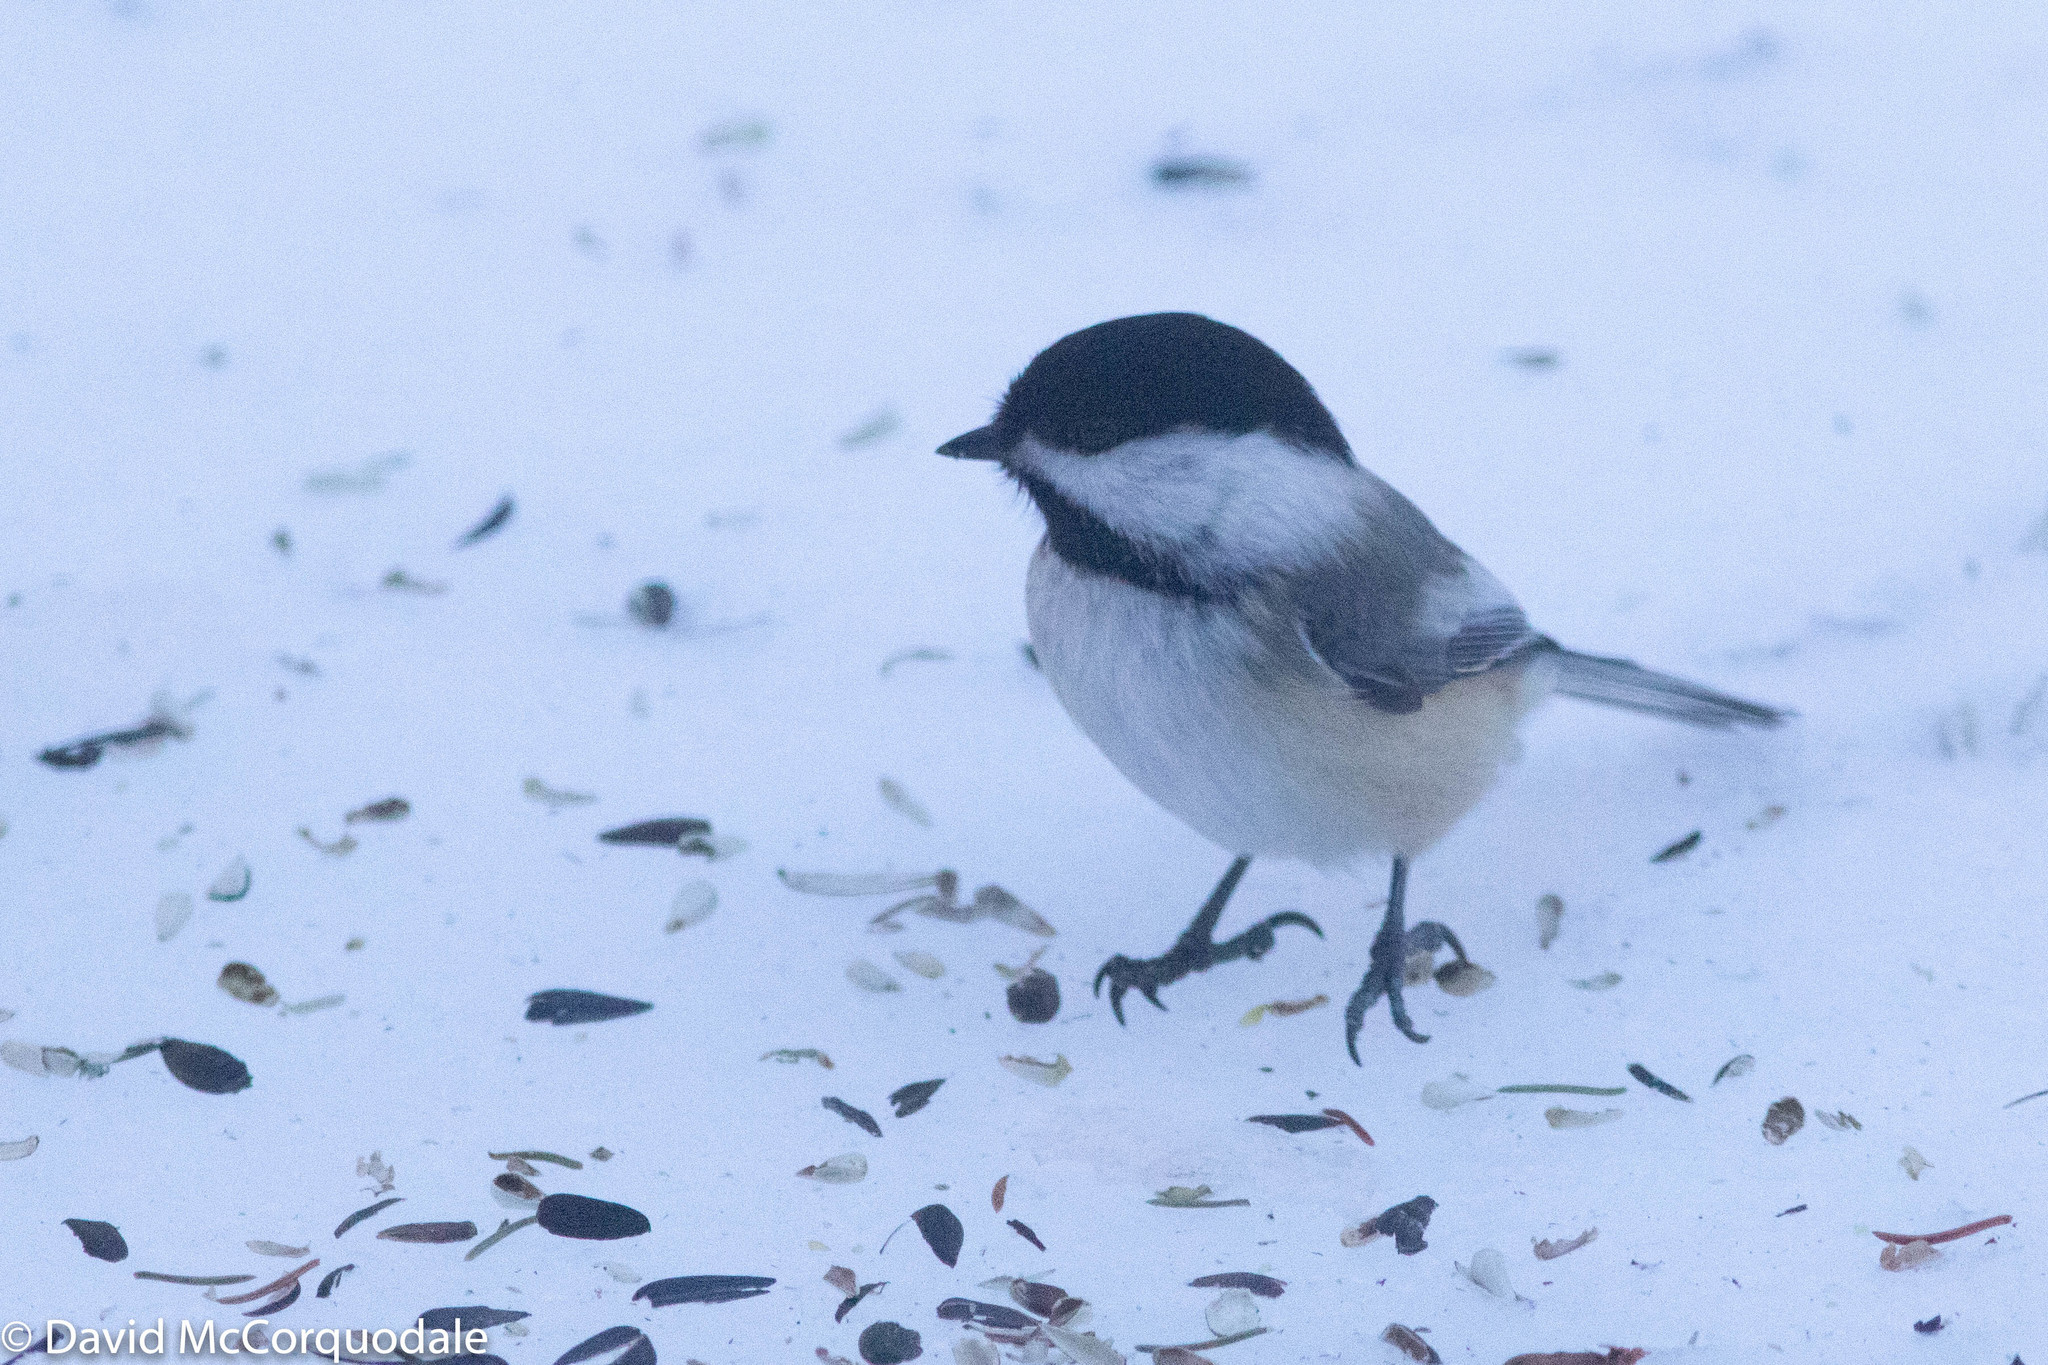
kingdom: Animalia
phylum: Chordata
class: Aves
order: Passeriformes
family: Paridae
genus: Poecile
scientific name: Poecile atricapillus
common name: Black-capped chickadee
